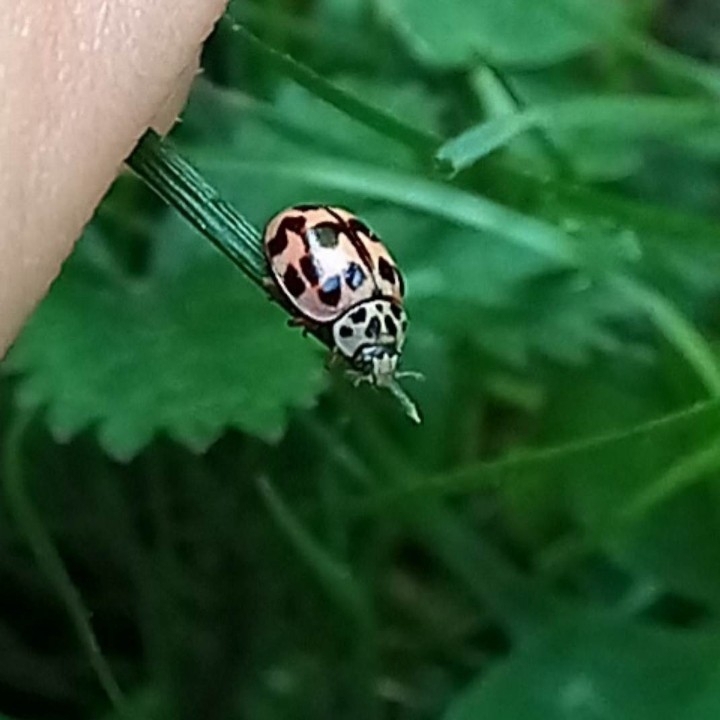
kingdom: Animalia
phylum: Arthropoda
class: Insecta
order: Coleoptera
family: Coccinellidae
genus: Oenopia
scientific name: Oenopia conglobata
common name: Ladybird beetle
